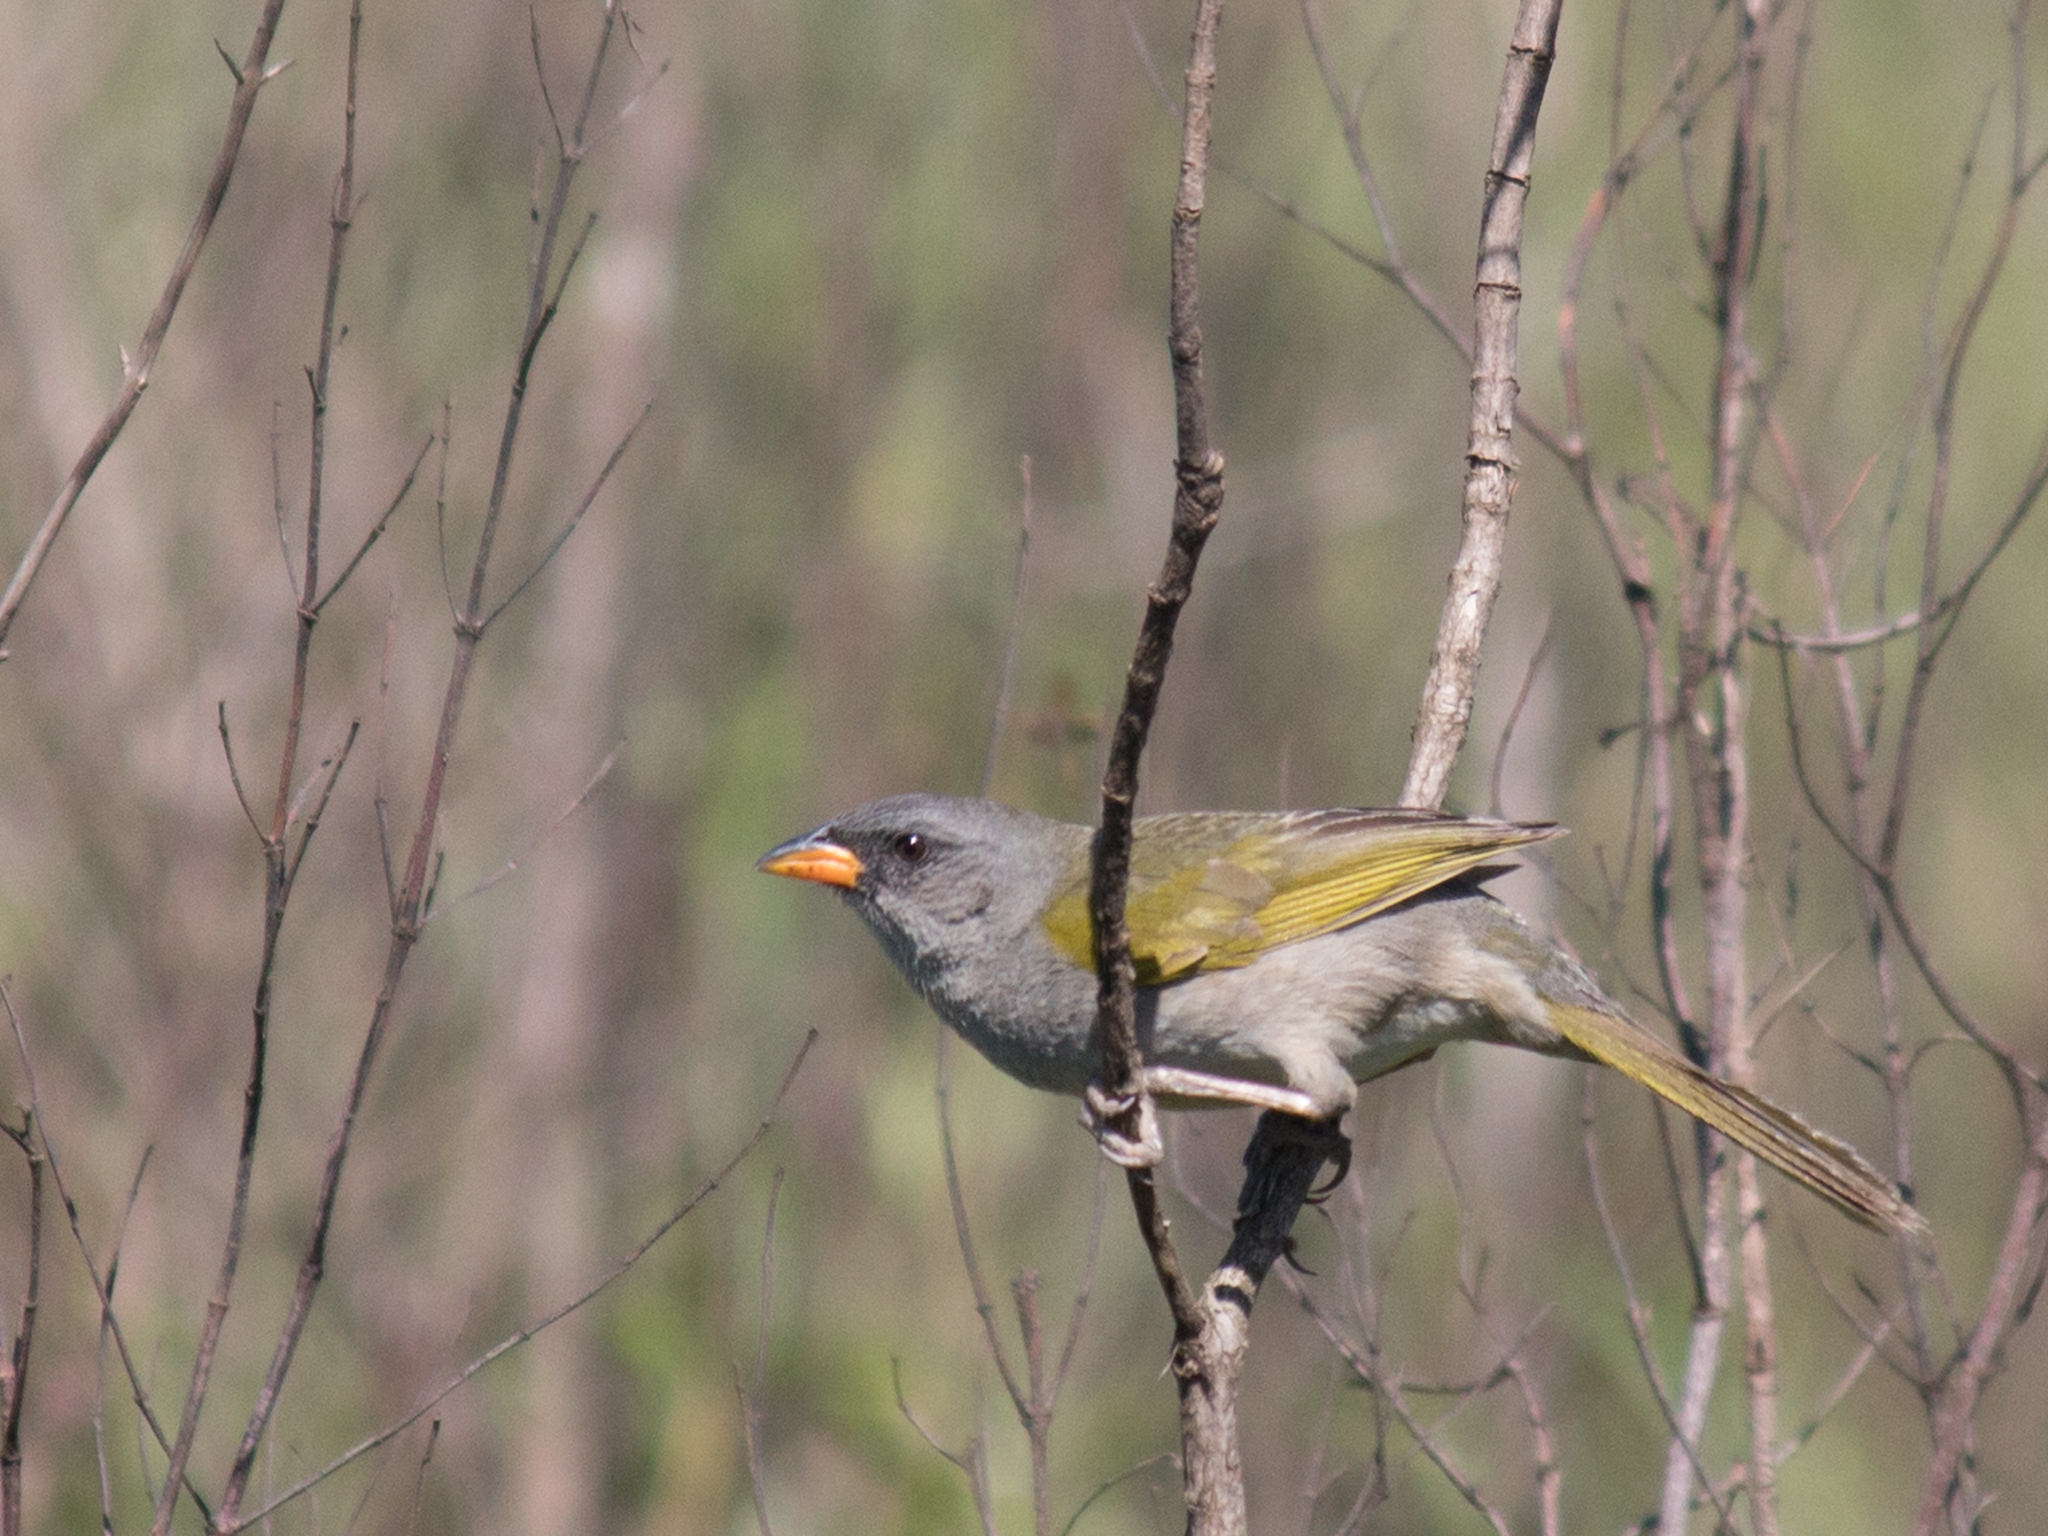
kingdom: Animalia
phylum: Chordata
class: Aves
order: Passeriformes
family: Thraupidae
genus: Embernagra
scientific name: Embernagra platensis
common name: Pampa finch
